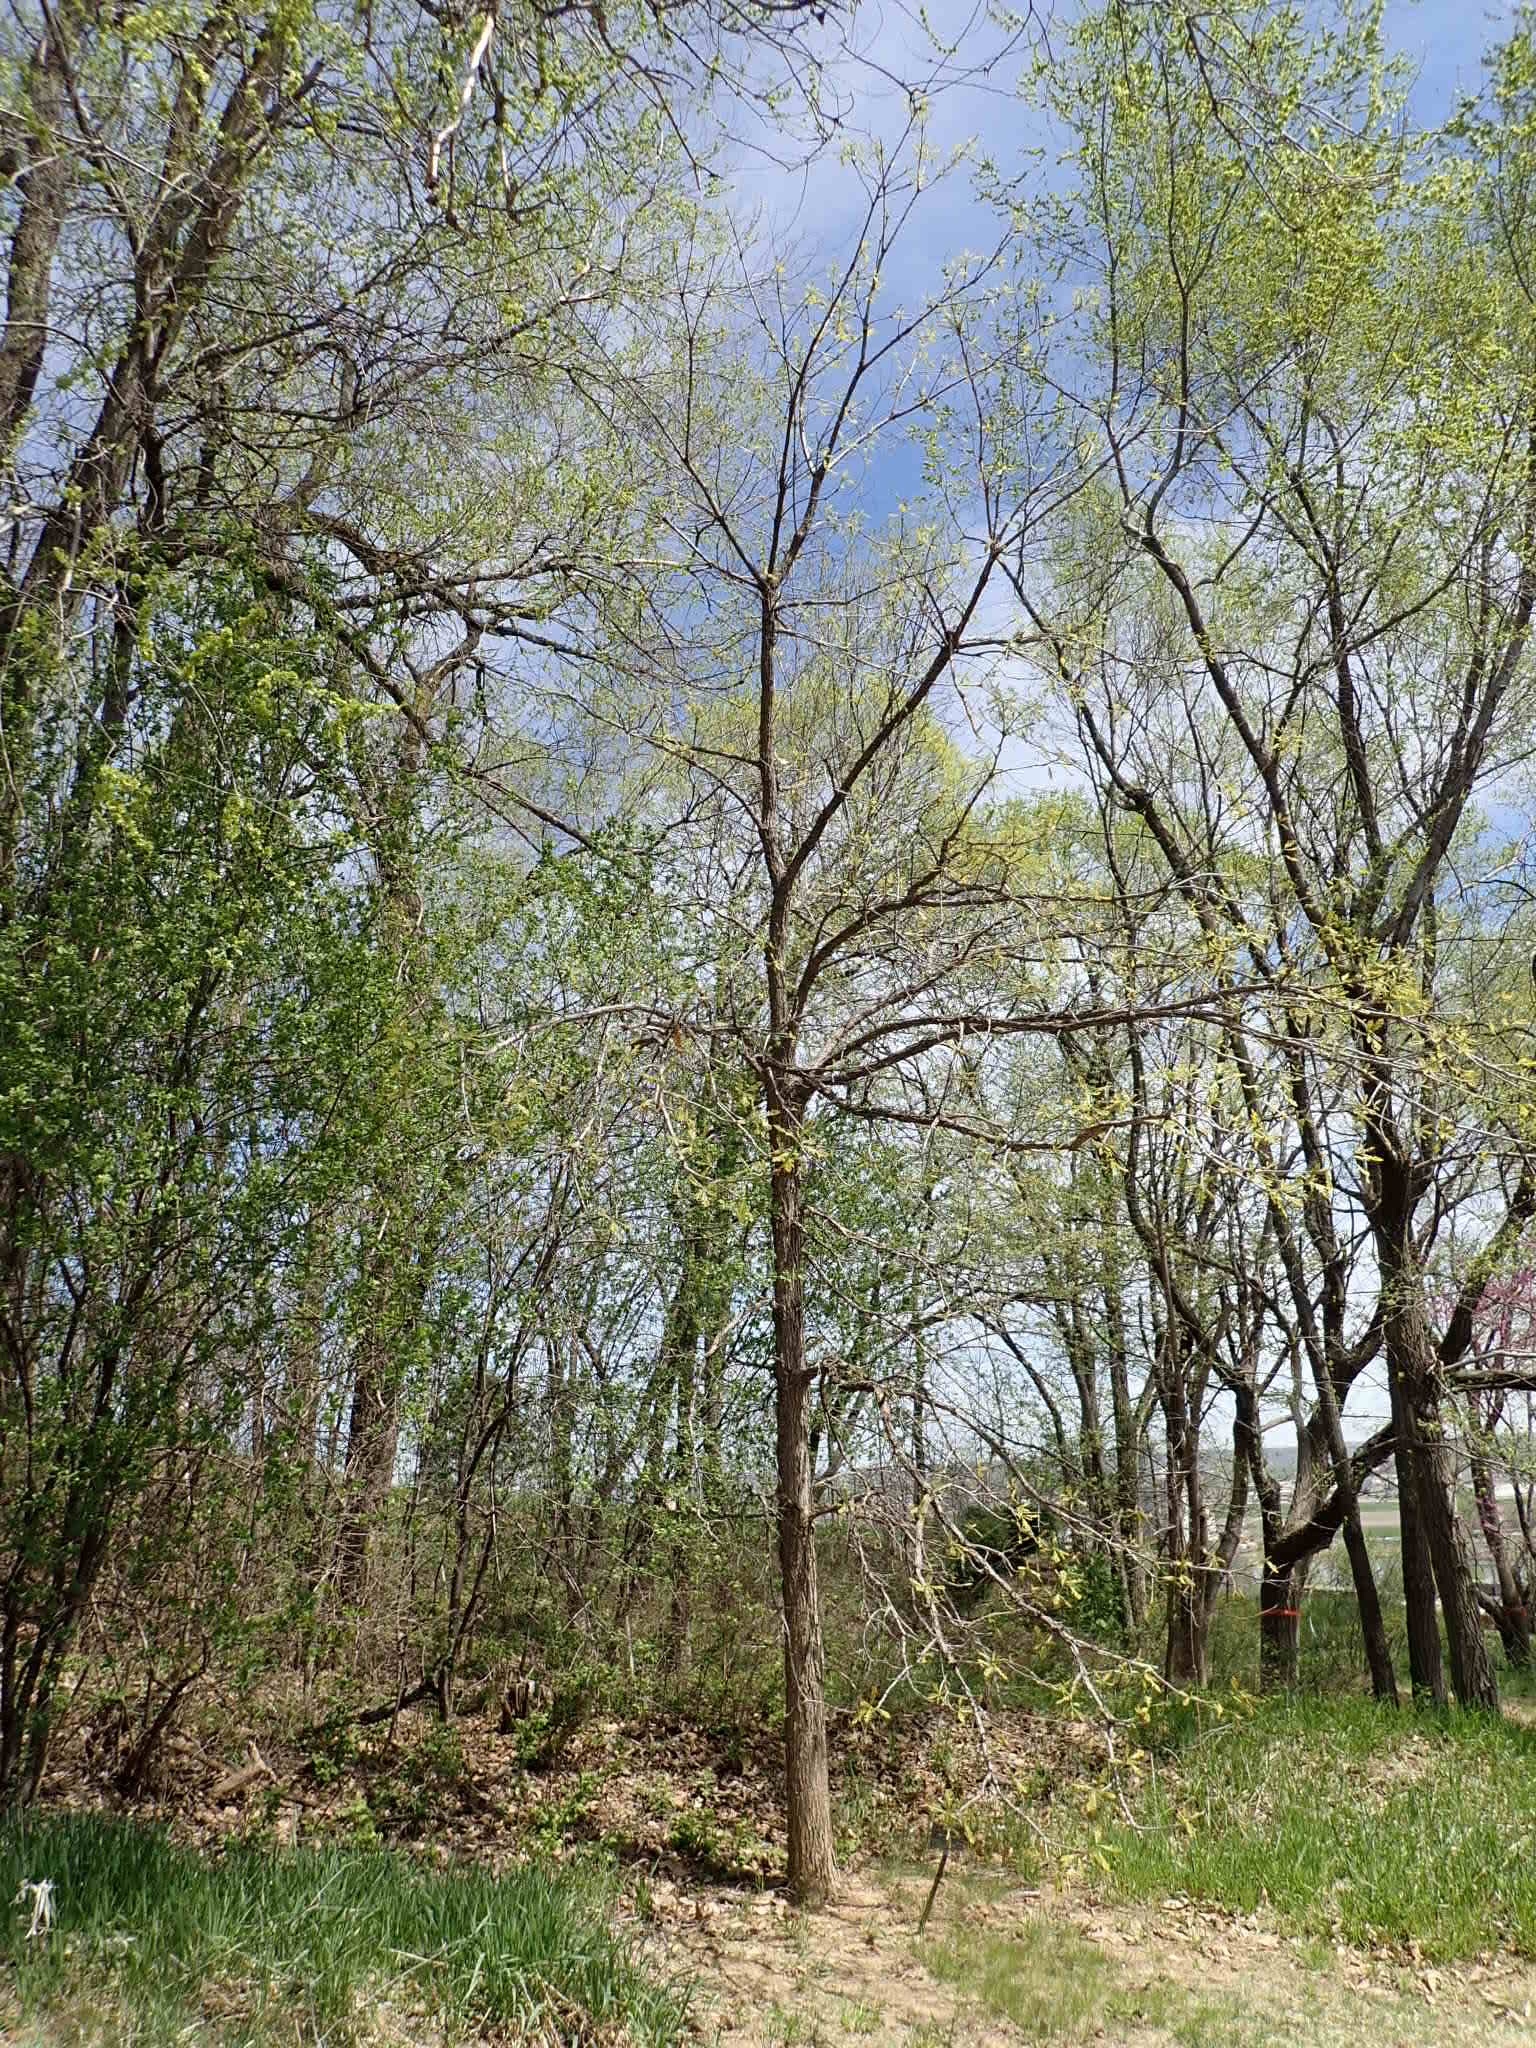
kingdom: Plantae
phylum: Tracheophyta
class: Magnoliopsida
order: Fagales
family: Fagaceae
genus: Quercus
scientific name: Quercus macrocarpa
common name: Bur oak
